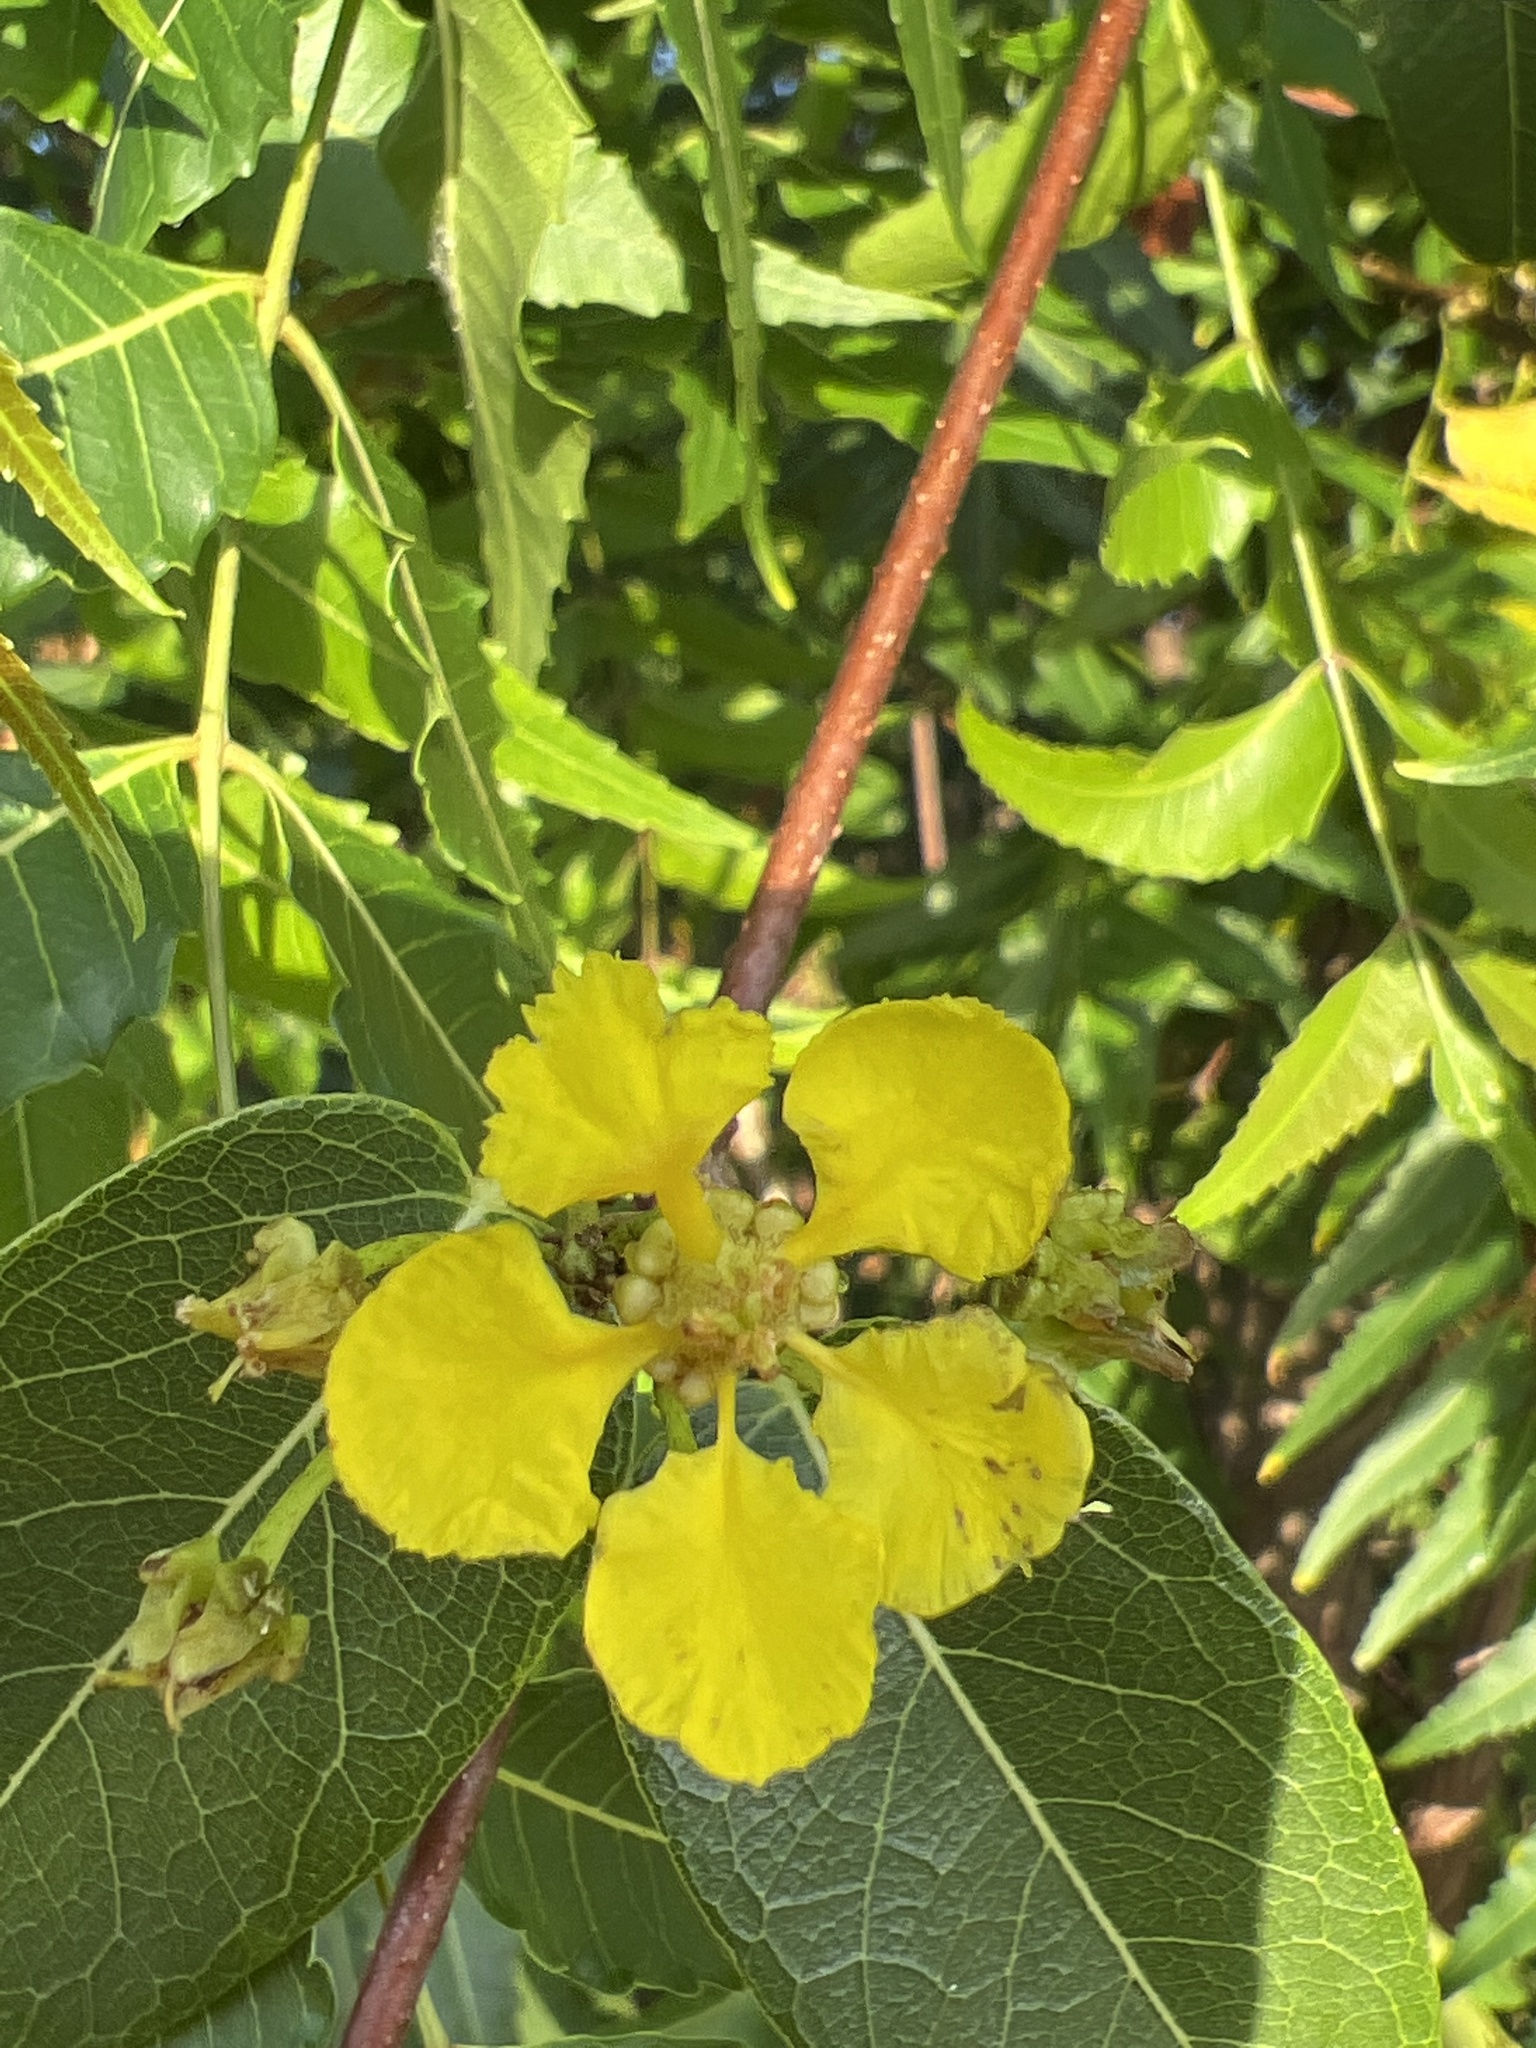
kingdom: Plantae
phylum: Tracheophyta
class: Magnoliopsida
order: Malpighiales
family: Malpighiaceae
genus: Stigmaphyllon
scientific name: Stigmaphyllon emarginatum
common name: Monarch amazonvine
